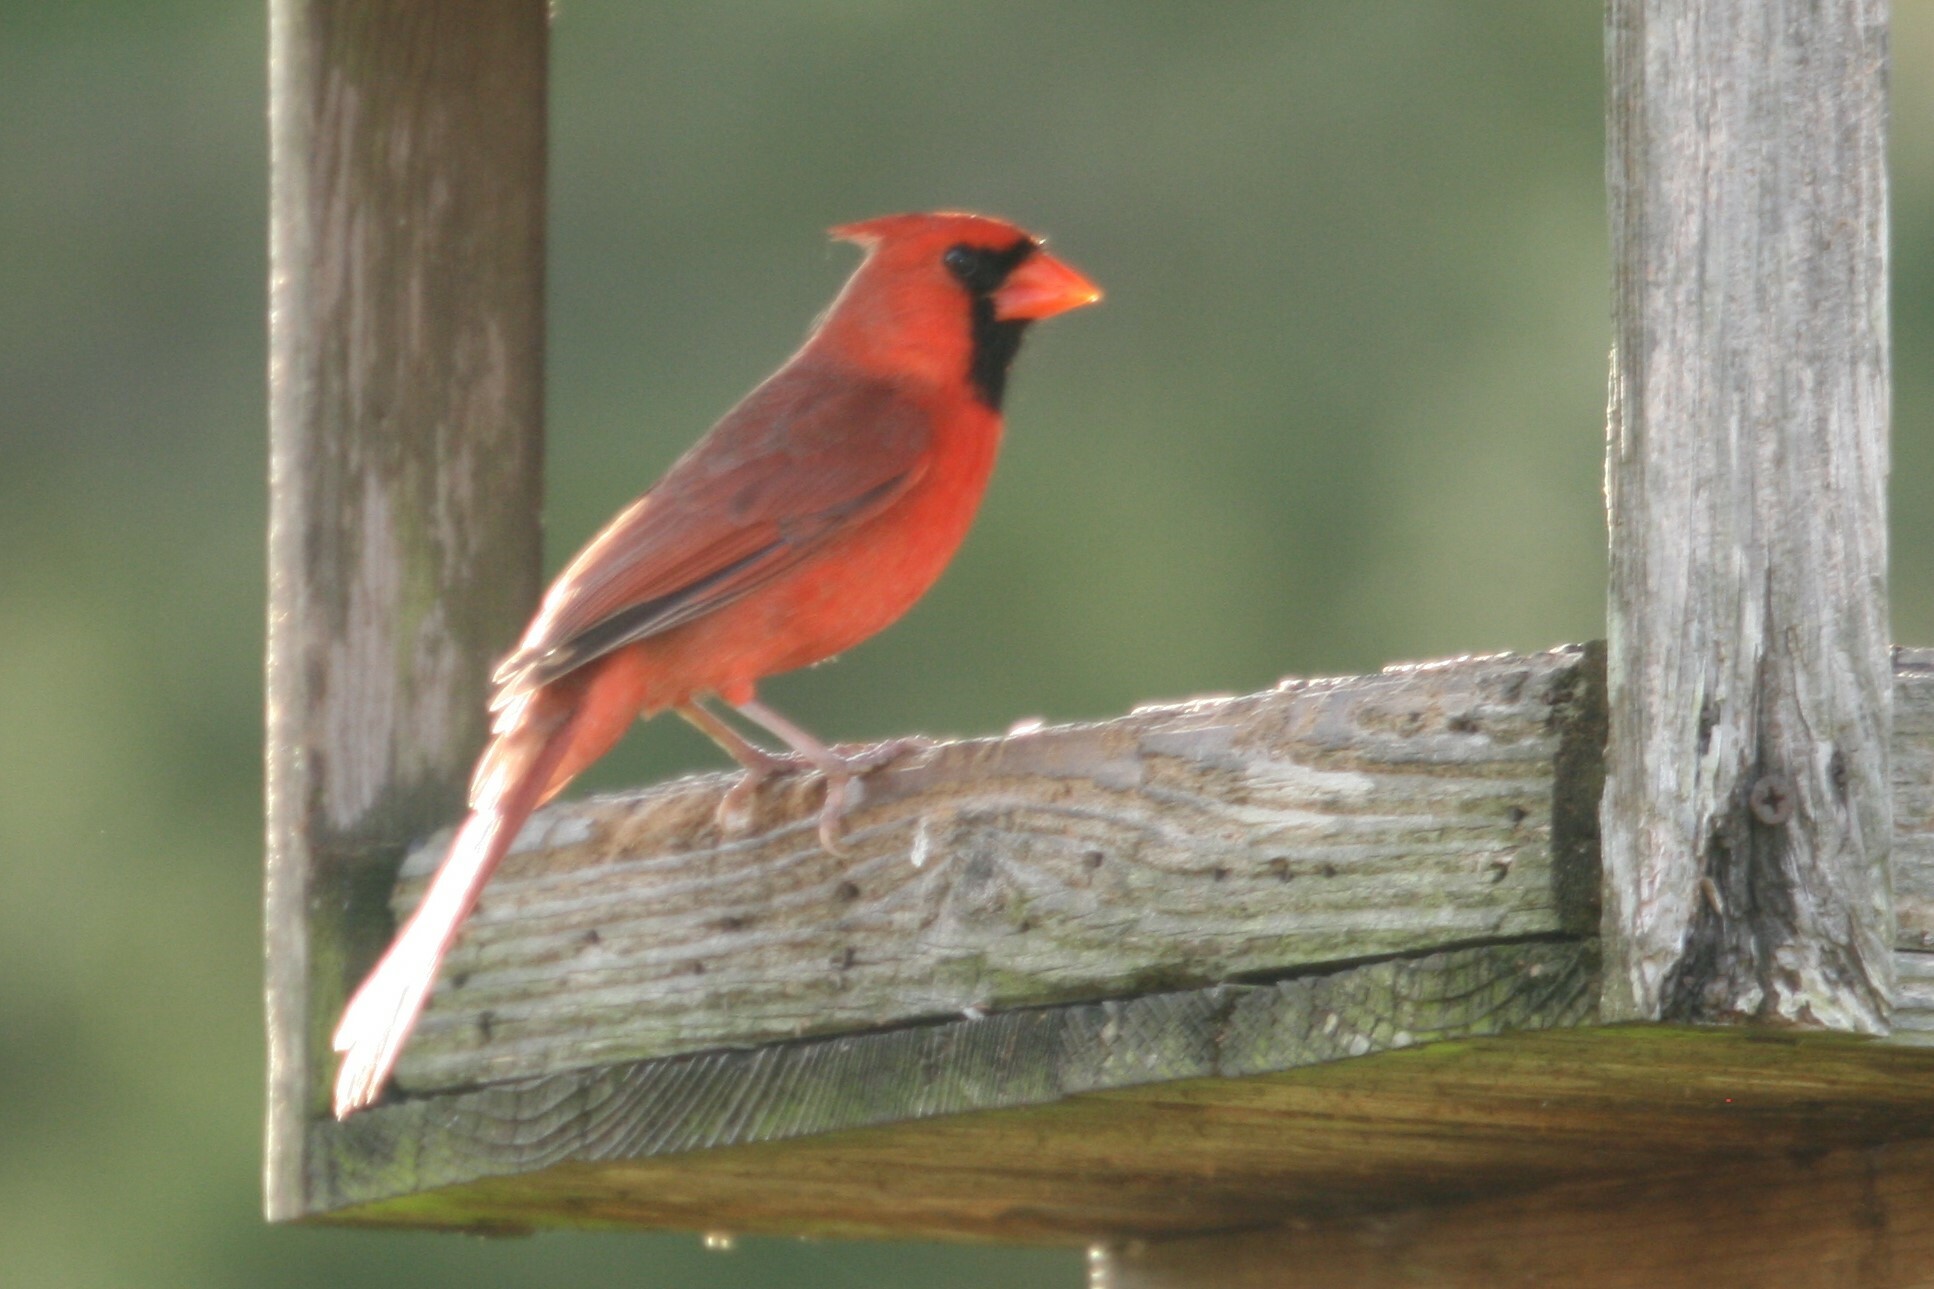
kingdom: Animalia
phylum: Chordata
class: Aves
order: Passeriformes
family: Cardinalidae
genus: Cardinalis
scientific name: Cardinalis cardinalis
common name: Northern cardinal
